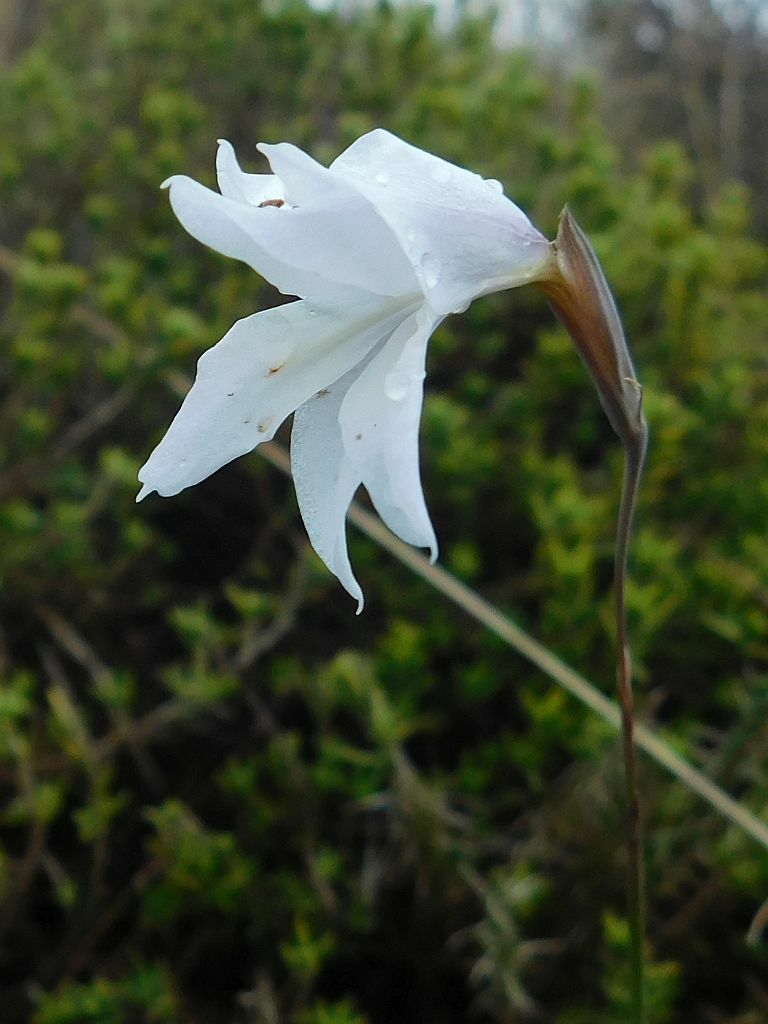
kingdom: Plantae
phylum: Tracheophyta
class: Liliopsida
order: Asparagales
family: Iridaceae
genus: Gladiolus
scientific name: Gladiolus vaginatus
